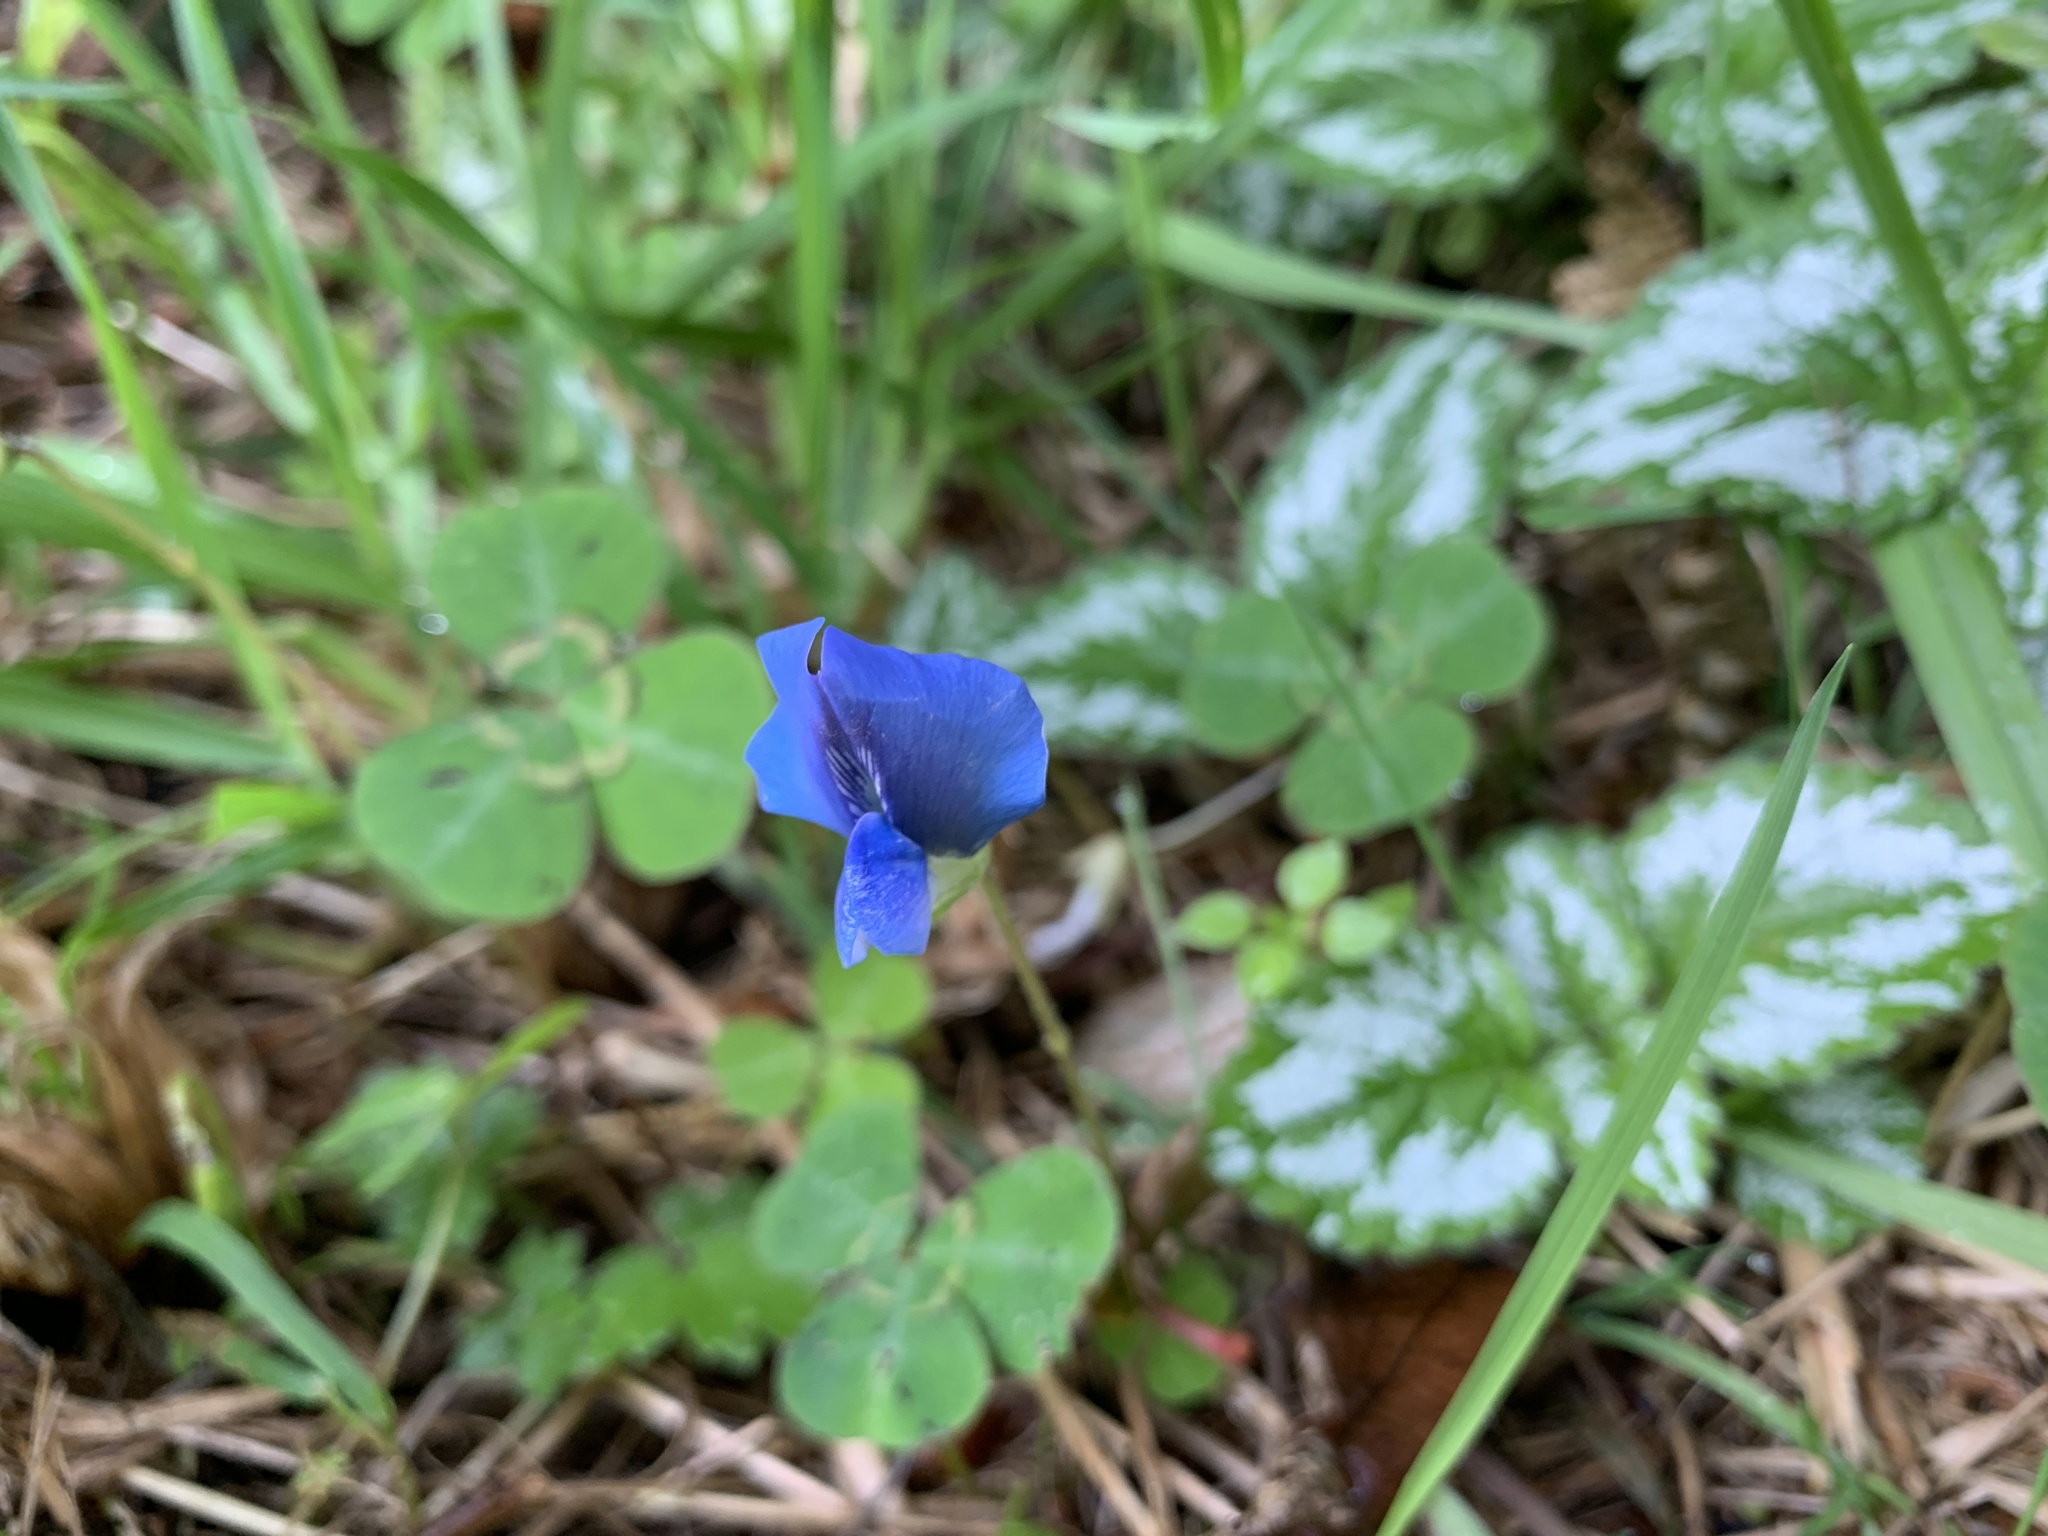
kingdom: Plantae
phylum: Tracheophyta
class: Magnoliopsida
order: Fabales
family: Fabaceae
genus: Parochetus
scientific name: Parochetus communis
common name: Blue oxalis
